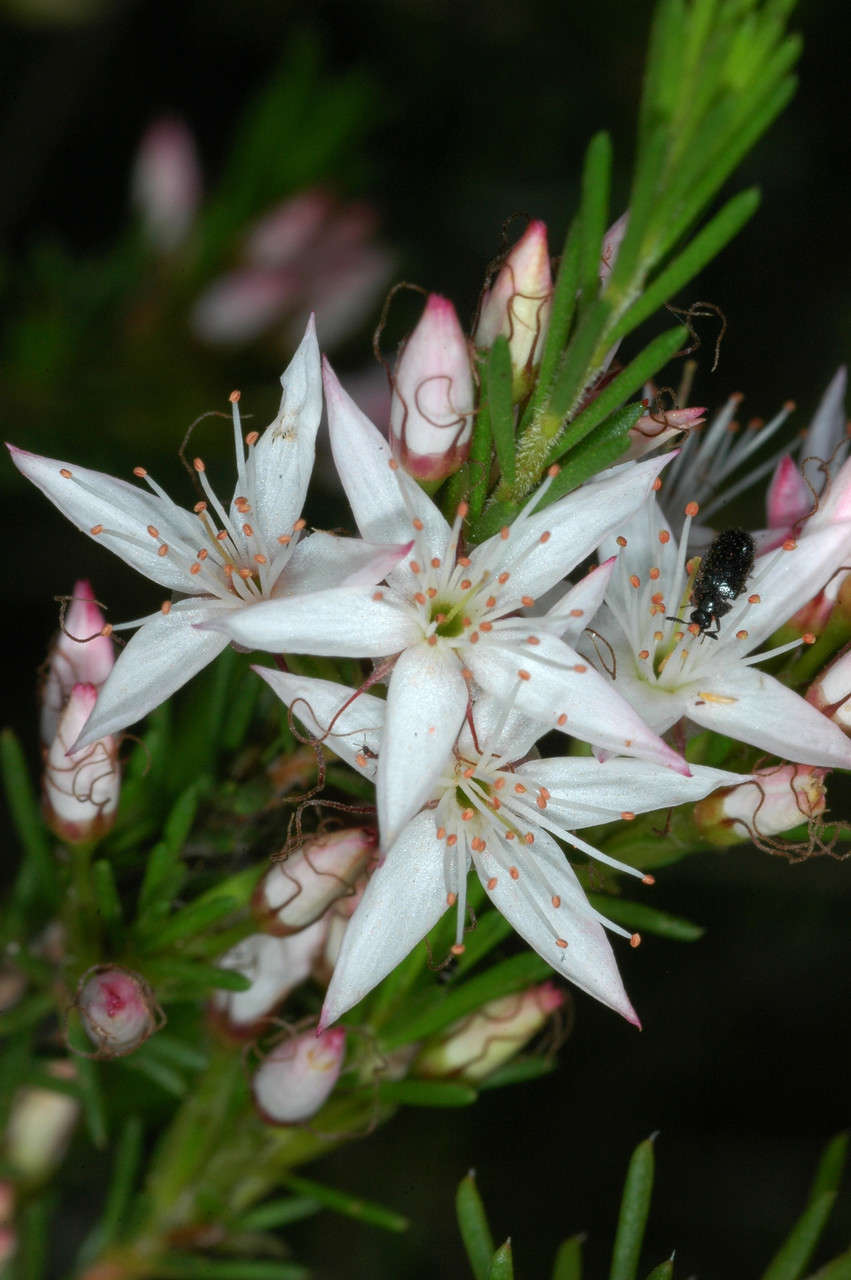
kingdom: Plantae
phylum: Tracheophyta
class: Magnoliopsida
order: Myrtales
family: Myrtaceae
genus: Calytrix
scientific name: Calytrix tetragona
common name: Common fringe myrtle
